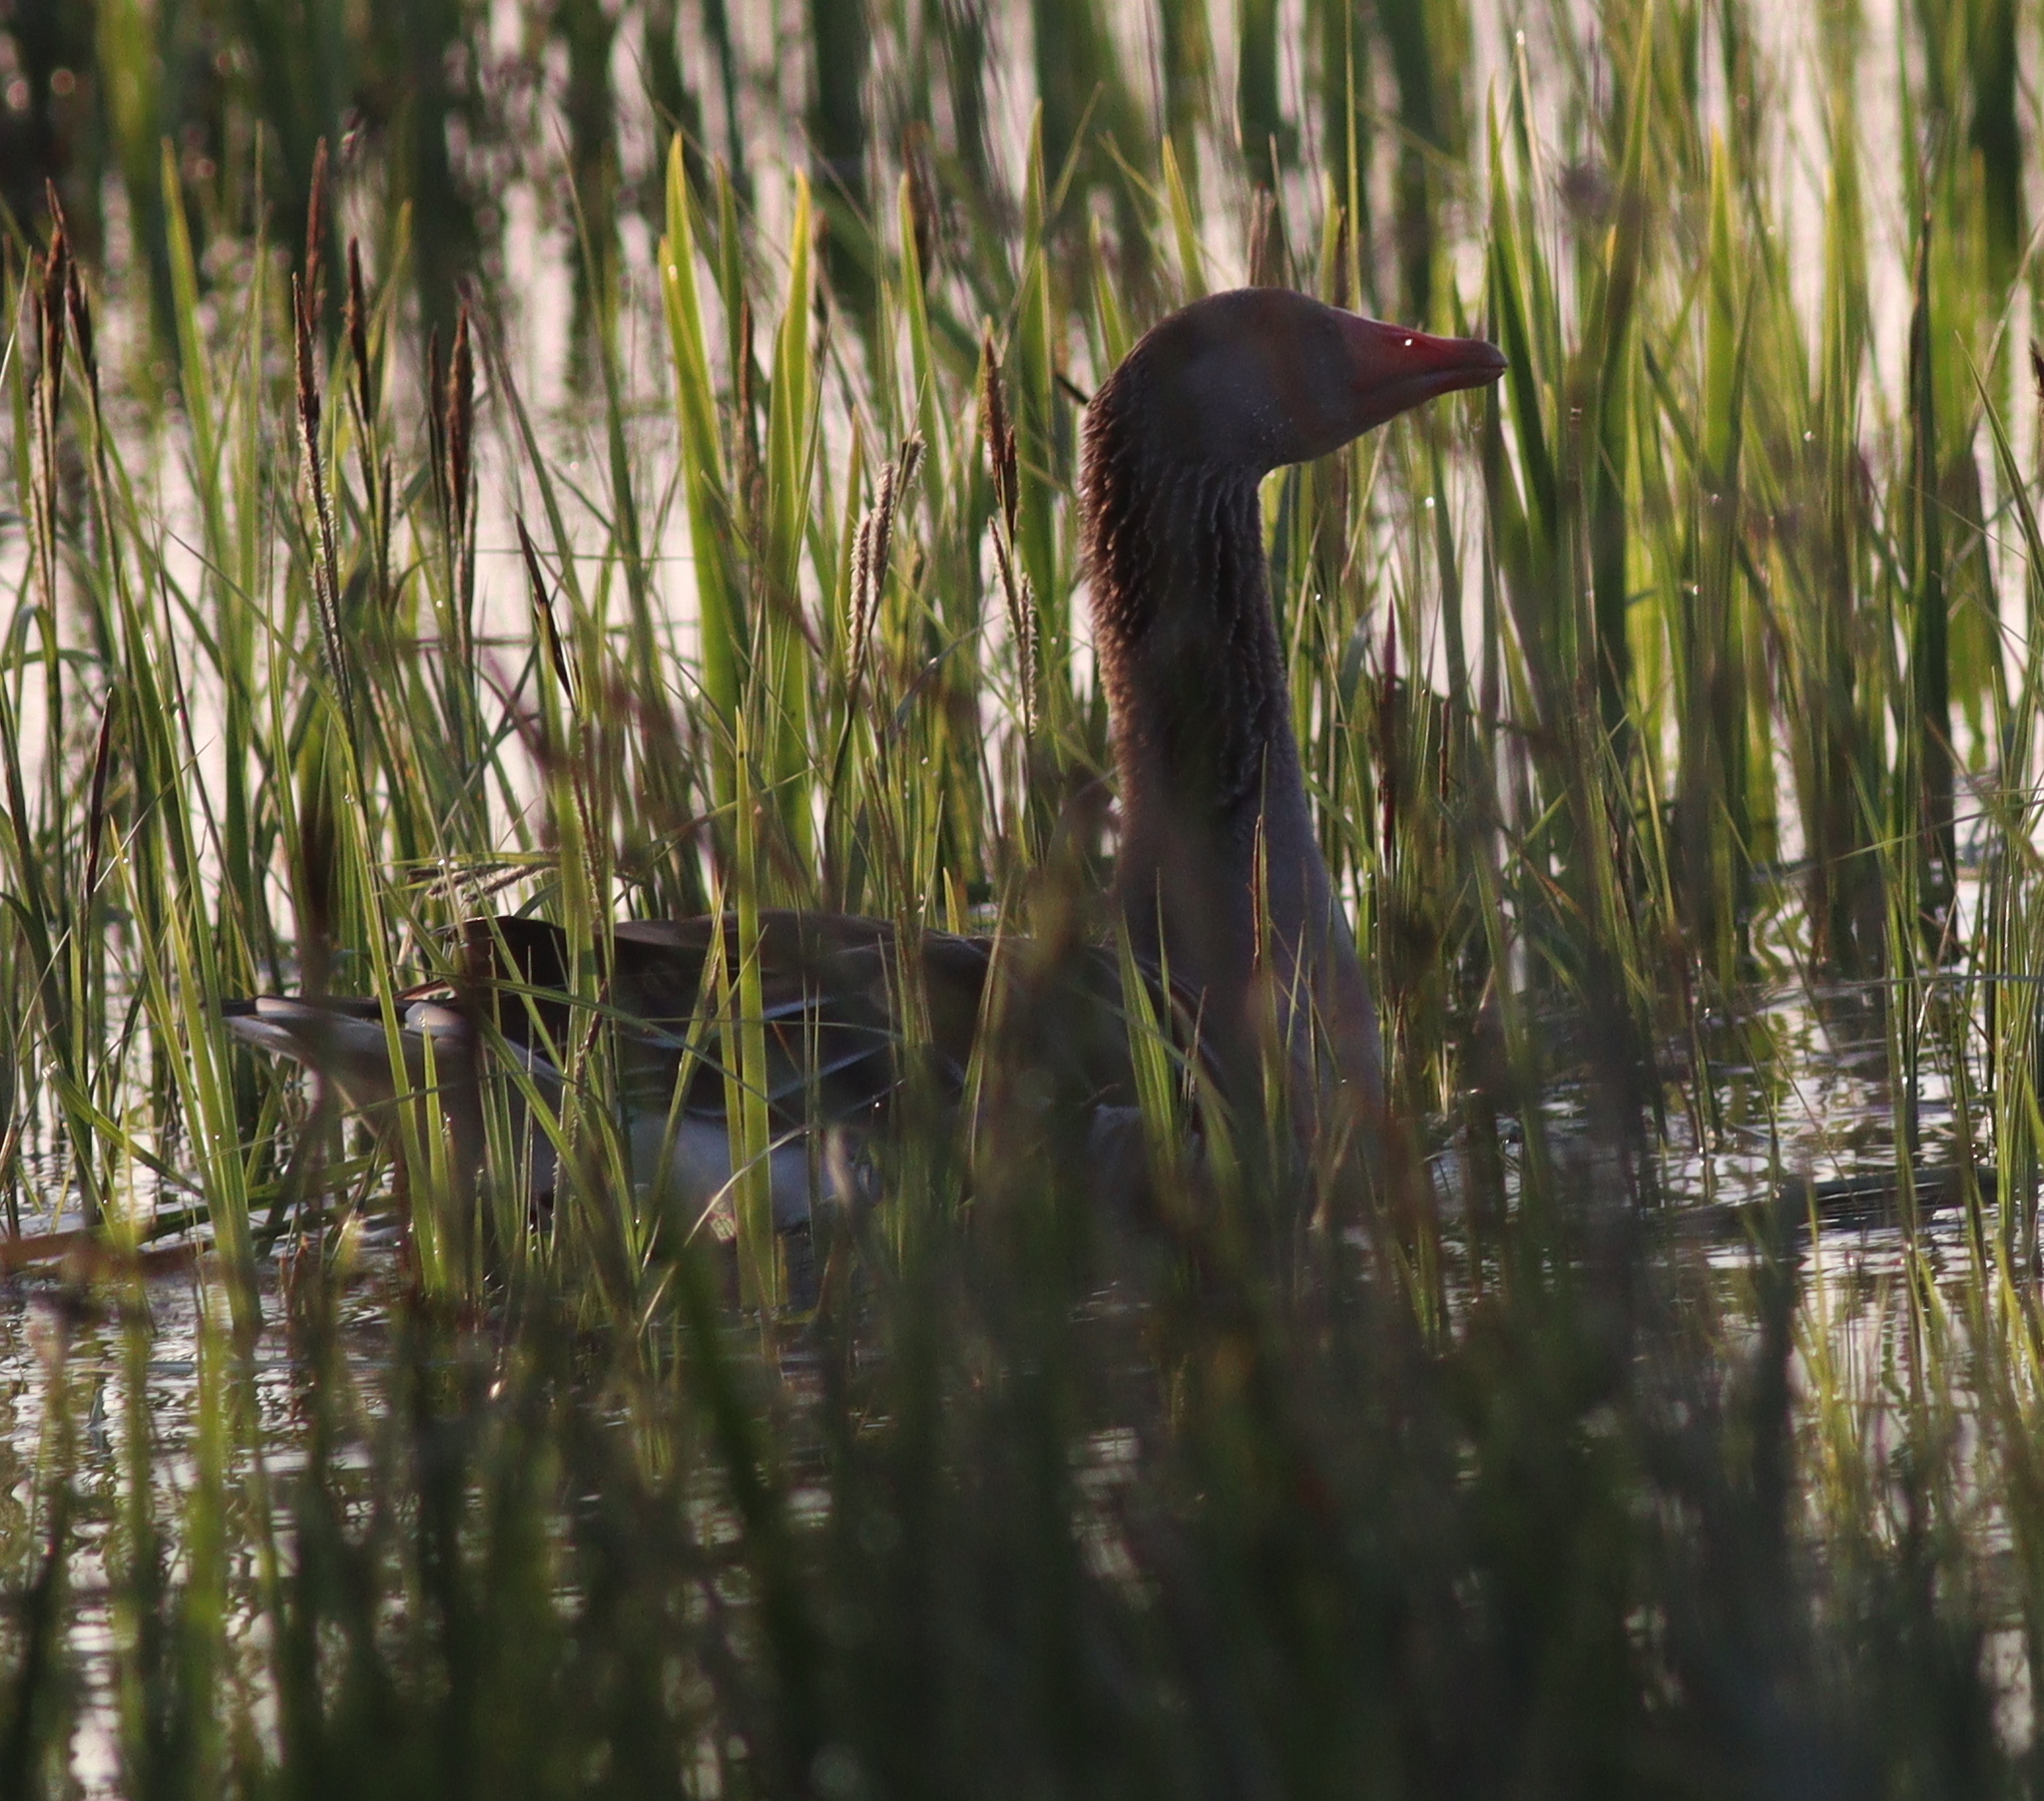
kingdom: Animalia
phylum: Chordata
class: Aves
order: Anseriformes
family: Anatidae
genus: Anser
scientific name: Anser anser
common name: Greylag goose
